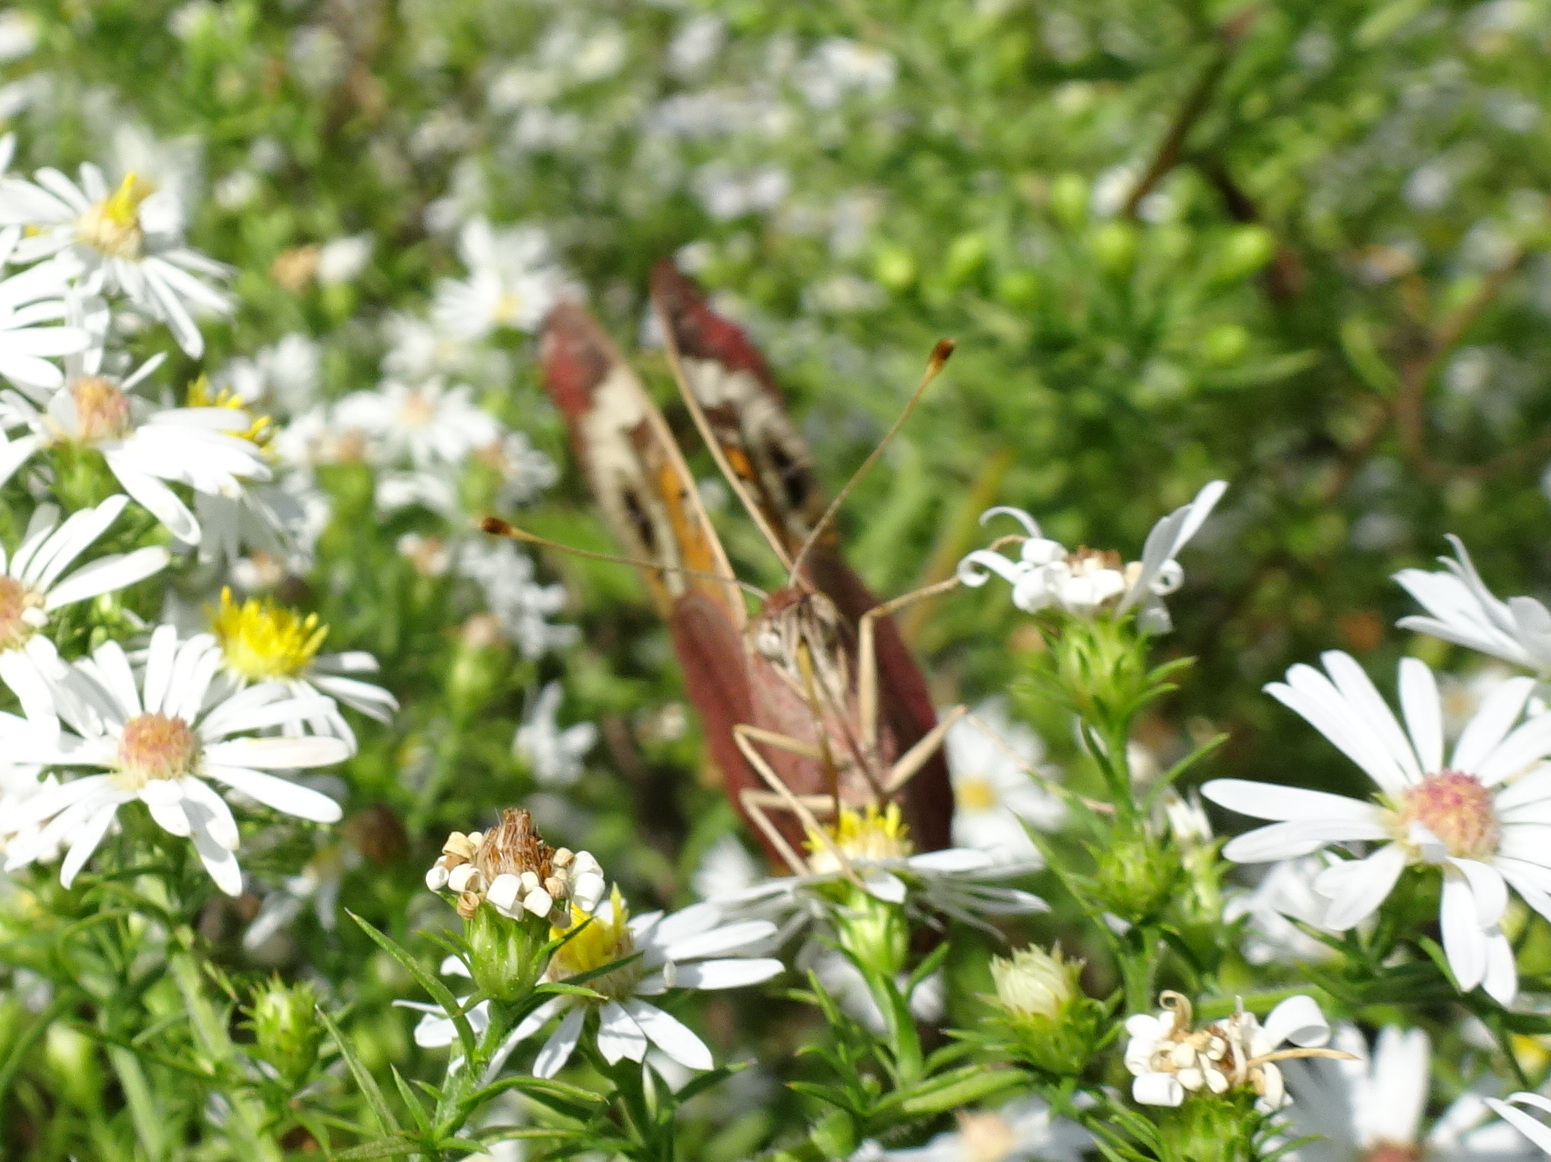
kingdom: Animalia
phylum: Arthropoda
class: Insecta
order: Lepidoptera
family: Nymphalidae
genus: Junonia
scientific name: Junonia coenia
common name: Common buckeye
